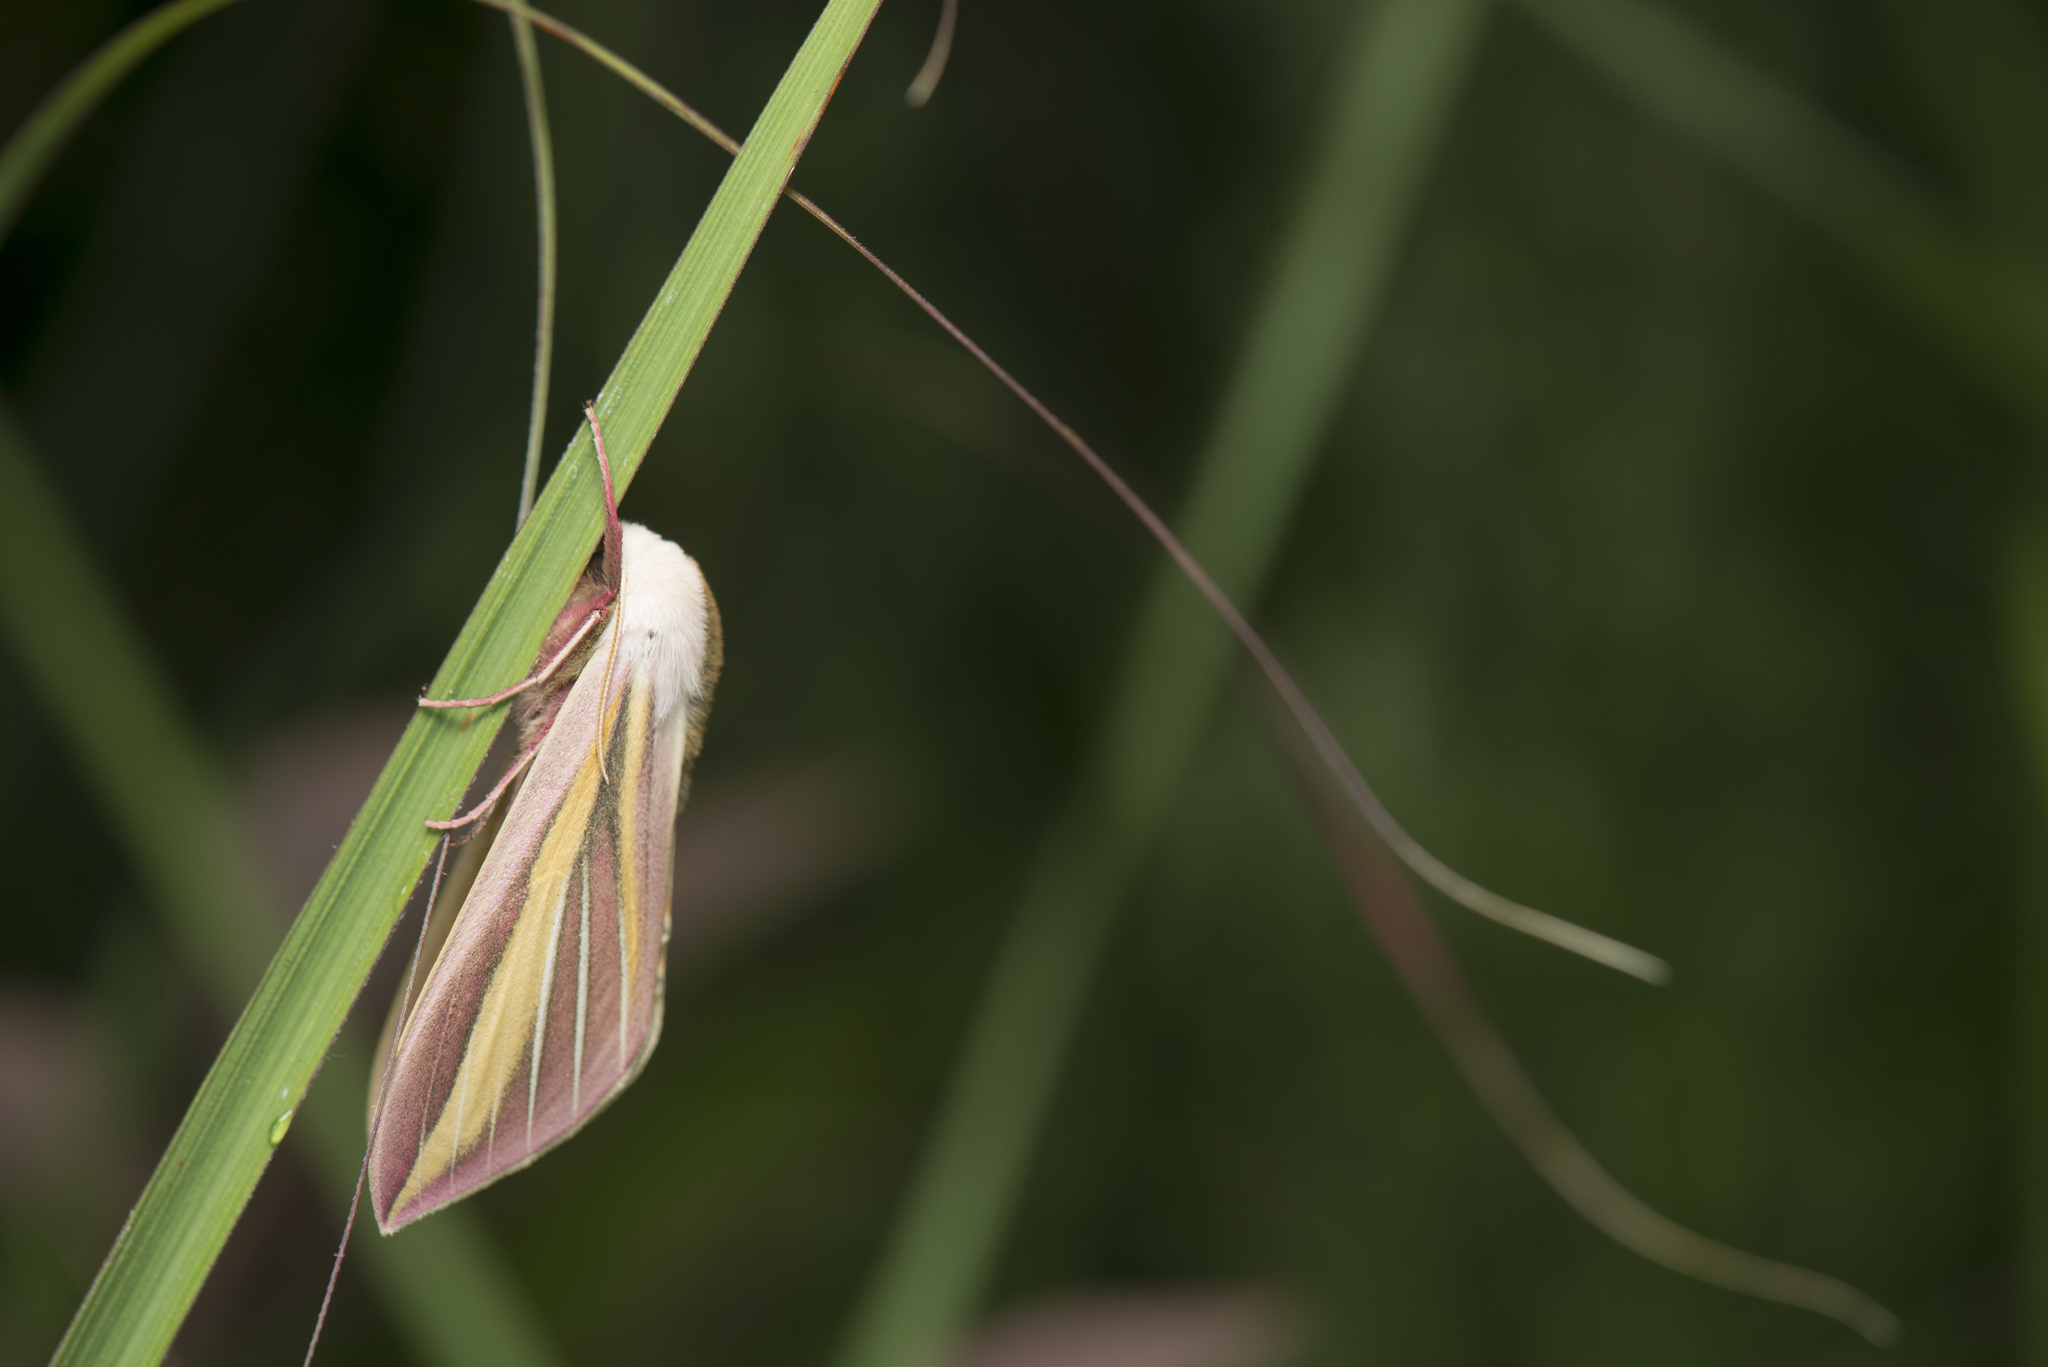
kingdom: Animalia
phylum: Arthropoda
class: Insecta
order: Lepidoptera
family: Sphingidae
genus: Leucophlebia
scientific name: Leucophlebia lineata
